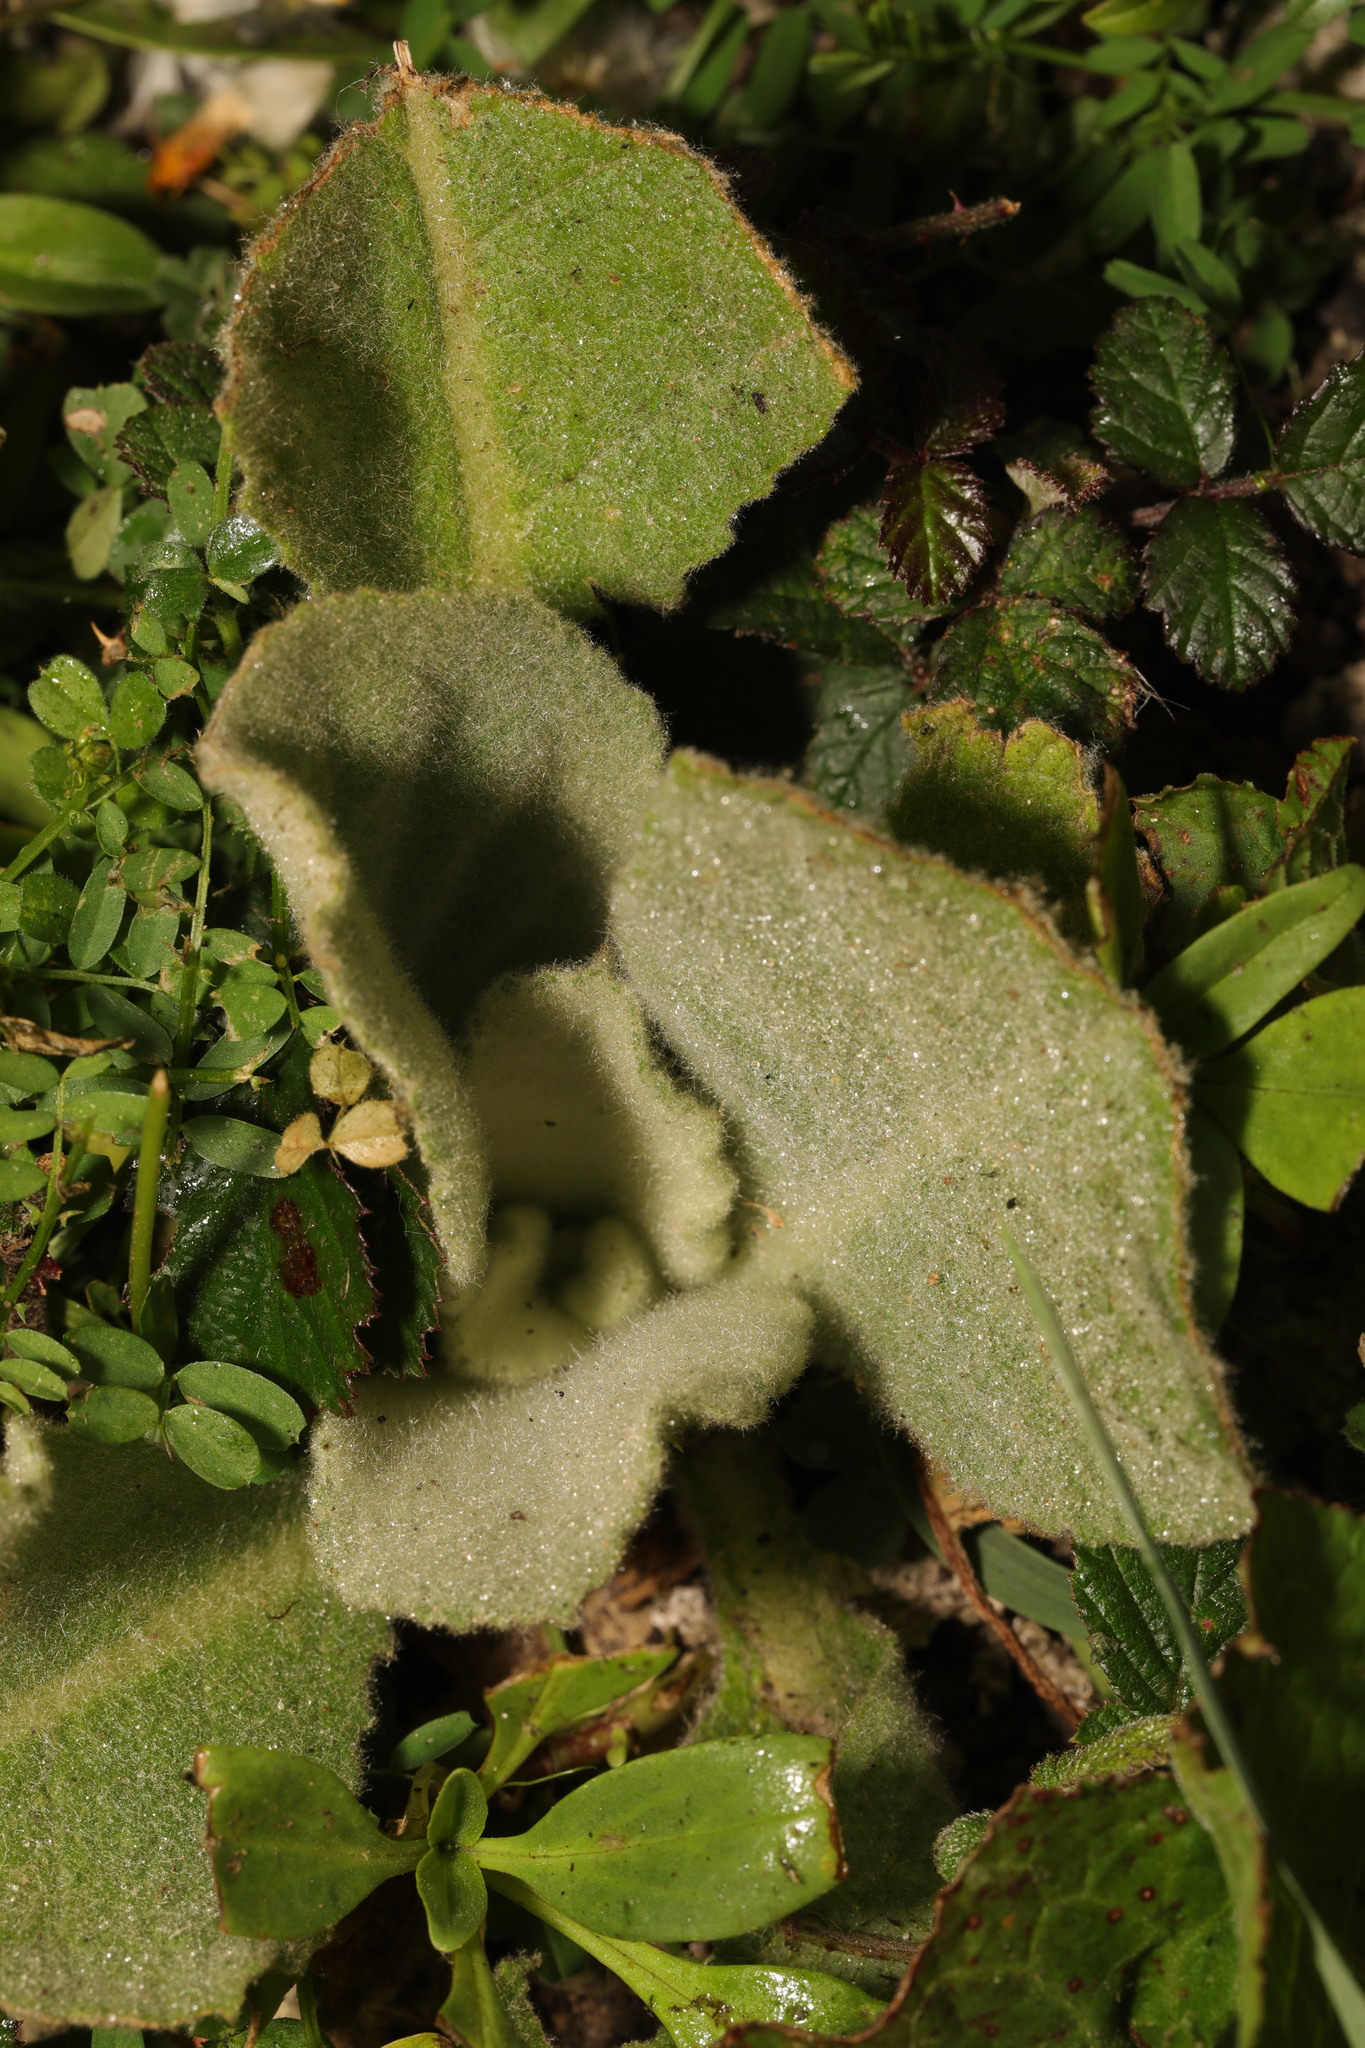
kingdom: Plantae
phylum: Tracheophyta
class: Magnoliopsida
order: Lamiales
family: Scrophulariaceae
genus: Verbascum
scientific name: Verbascum thapsus
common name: Common mullein
